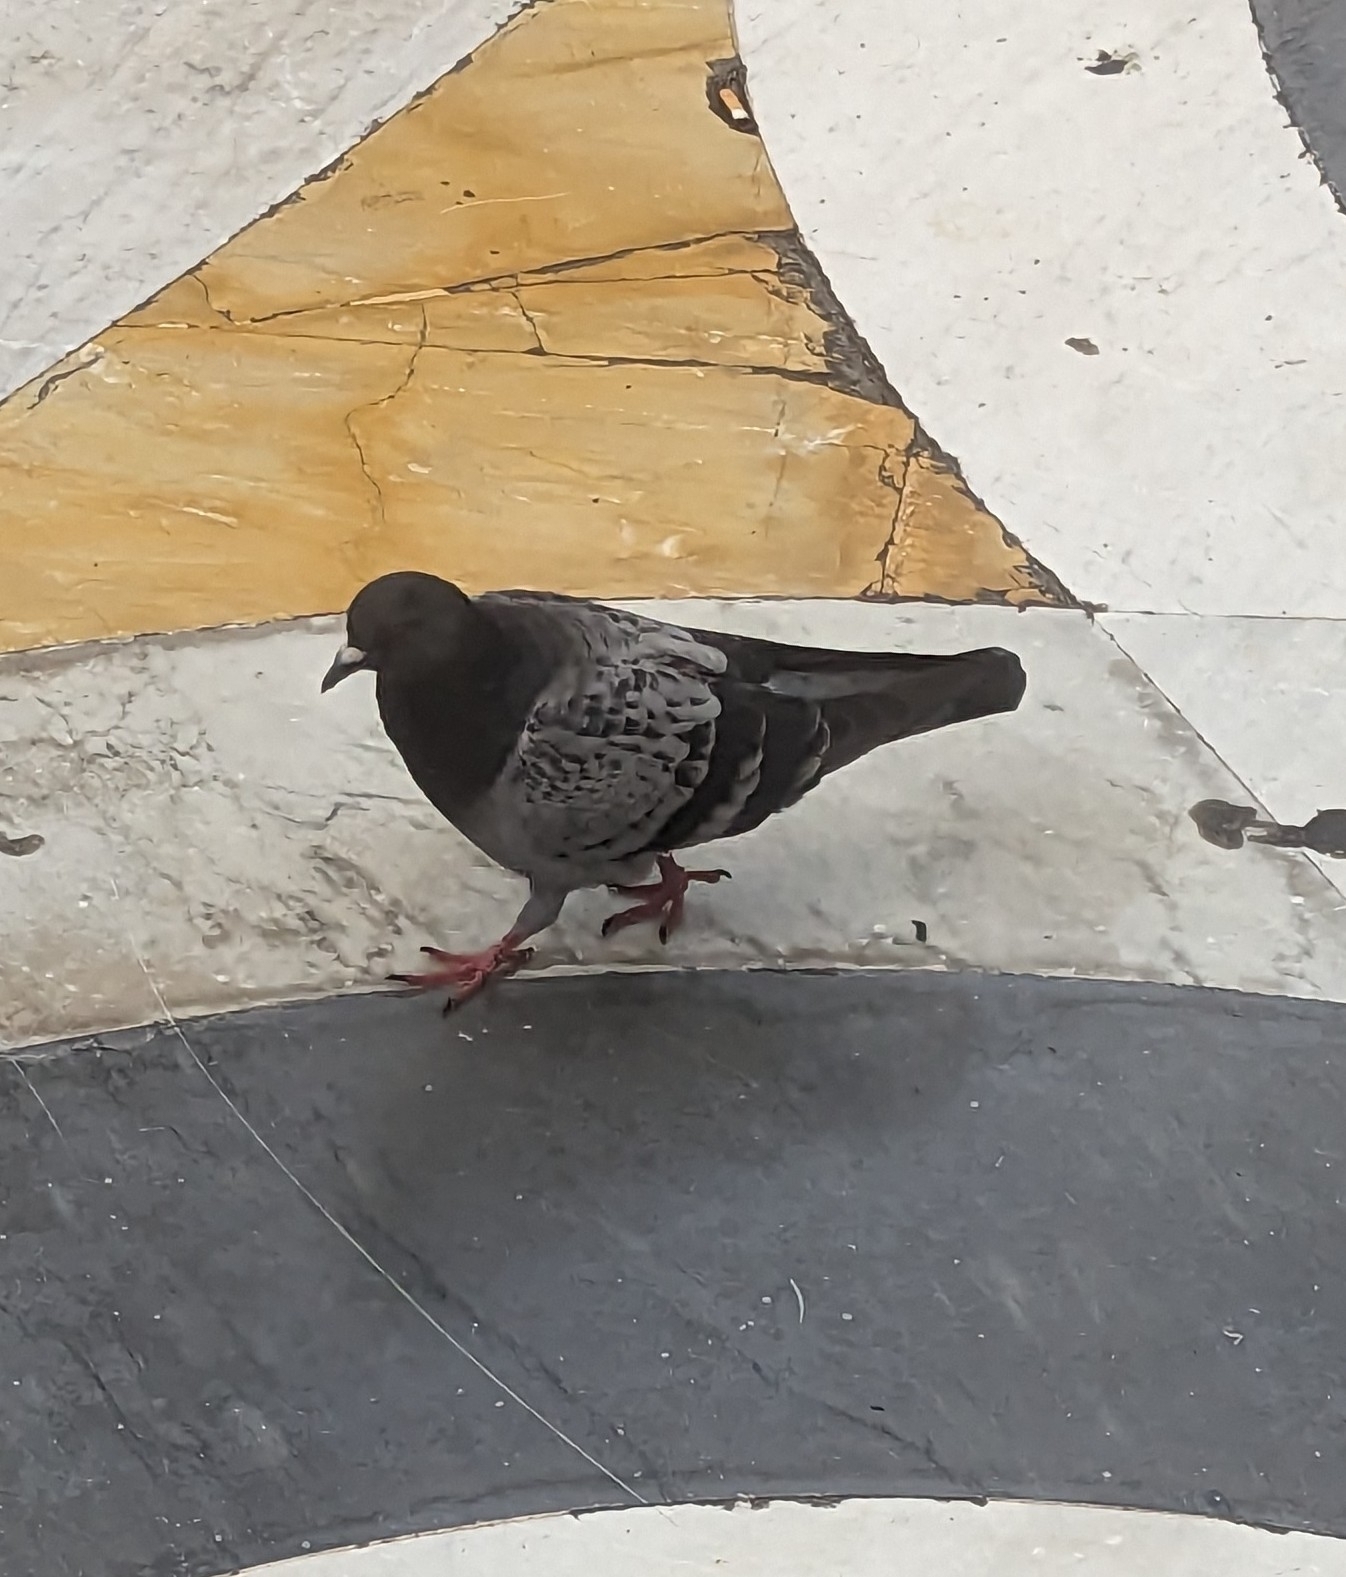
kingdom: Animalia
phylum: Chordata
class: Aves
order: Columbiformes
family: Columbidae
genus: Columba
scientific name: Columba livia
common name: Rock pigeon
